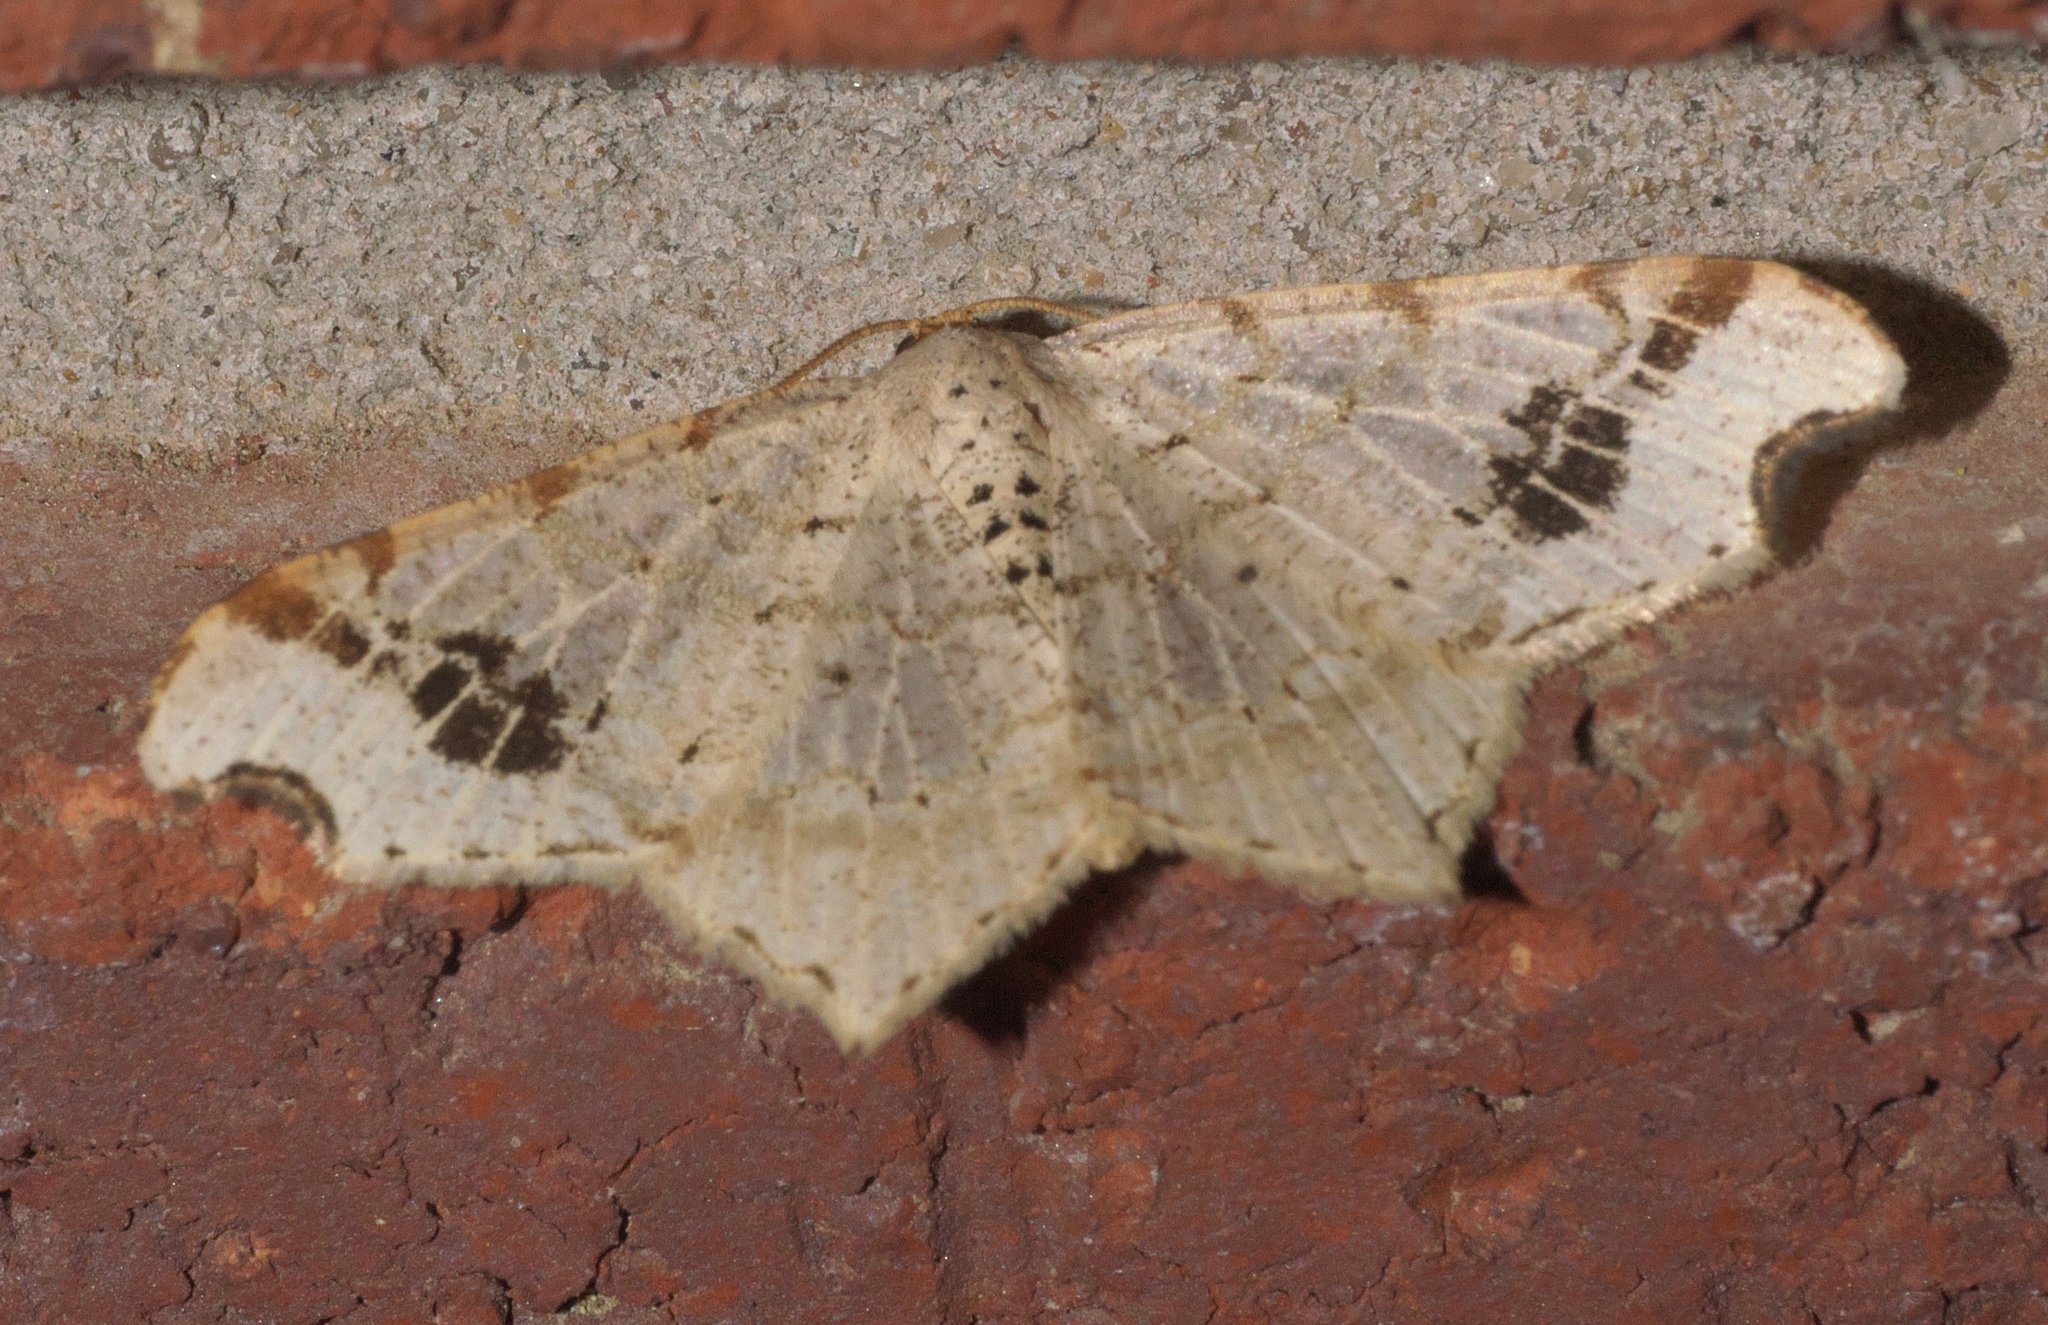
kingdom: Animalia
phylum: Arthropoda
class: Insecta
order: Lepidoptera
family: Geometridae
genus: Macaria
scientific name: Macaria aemulataria
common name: Common angle
